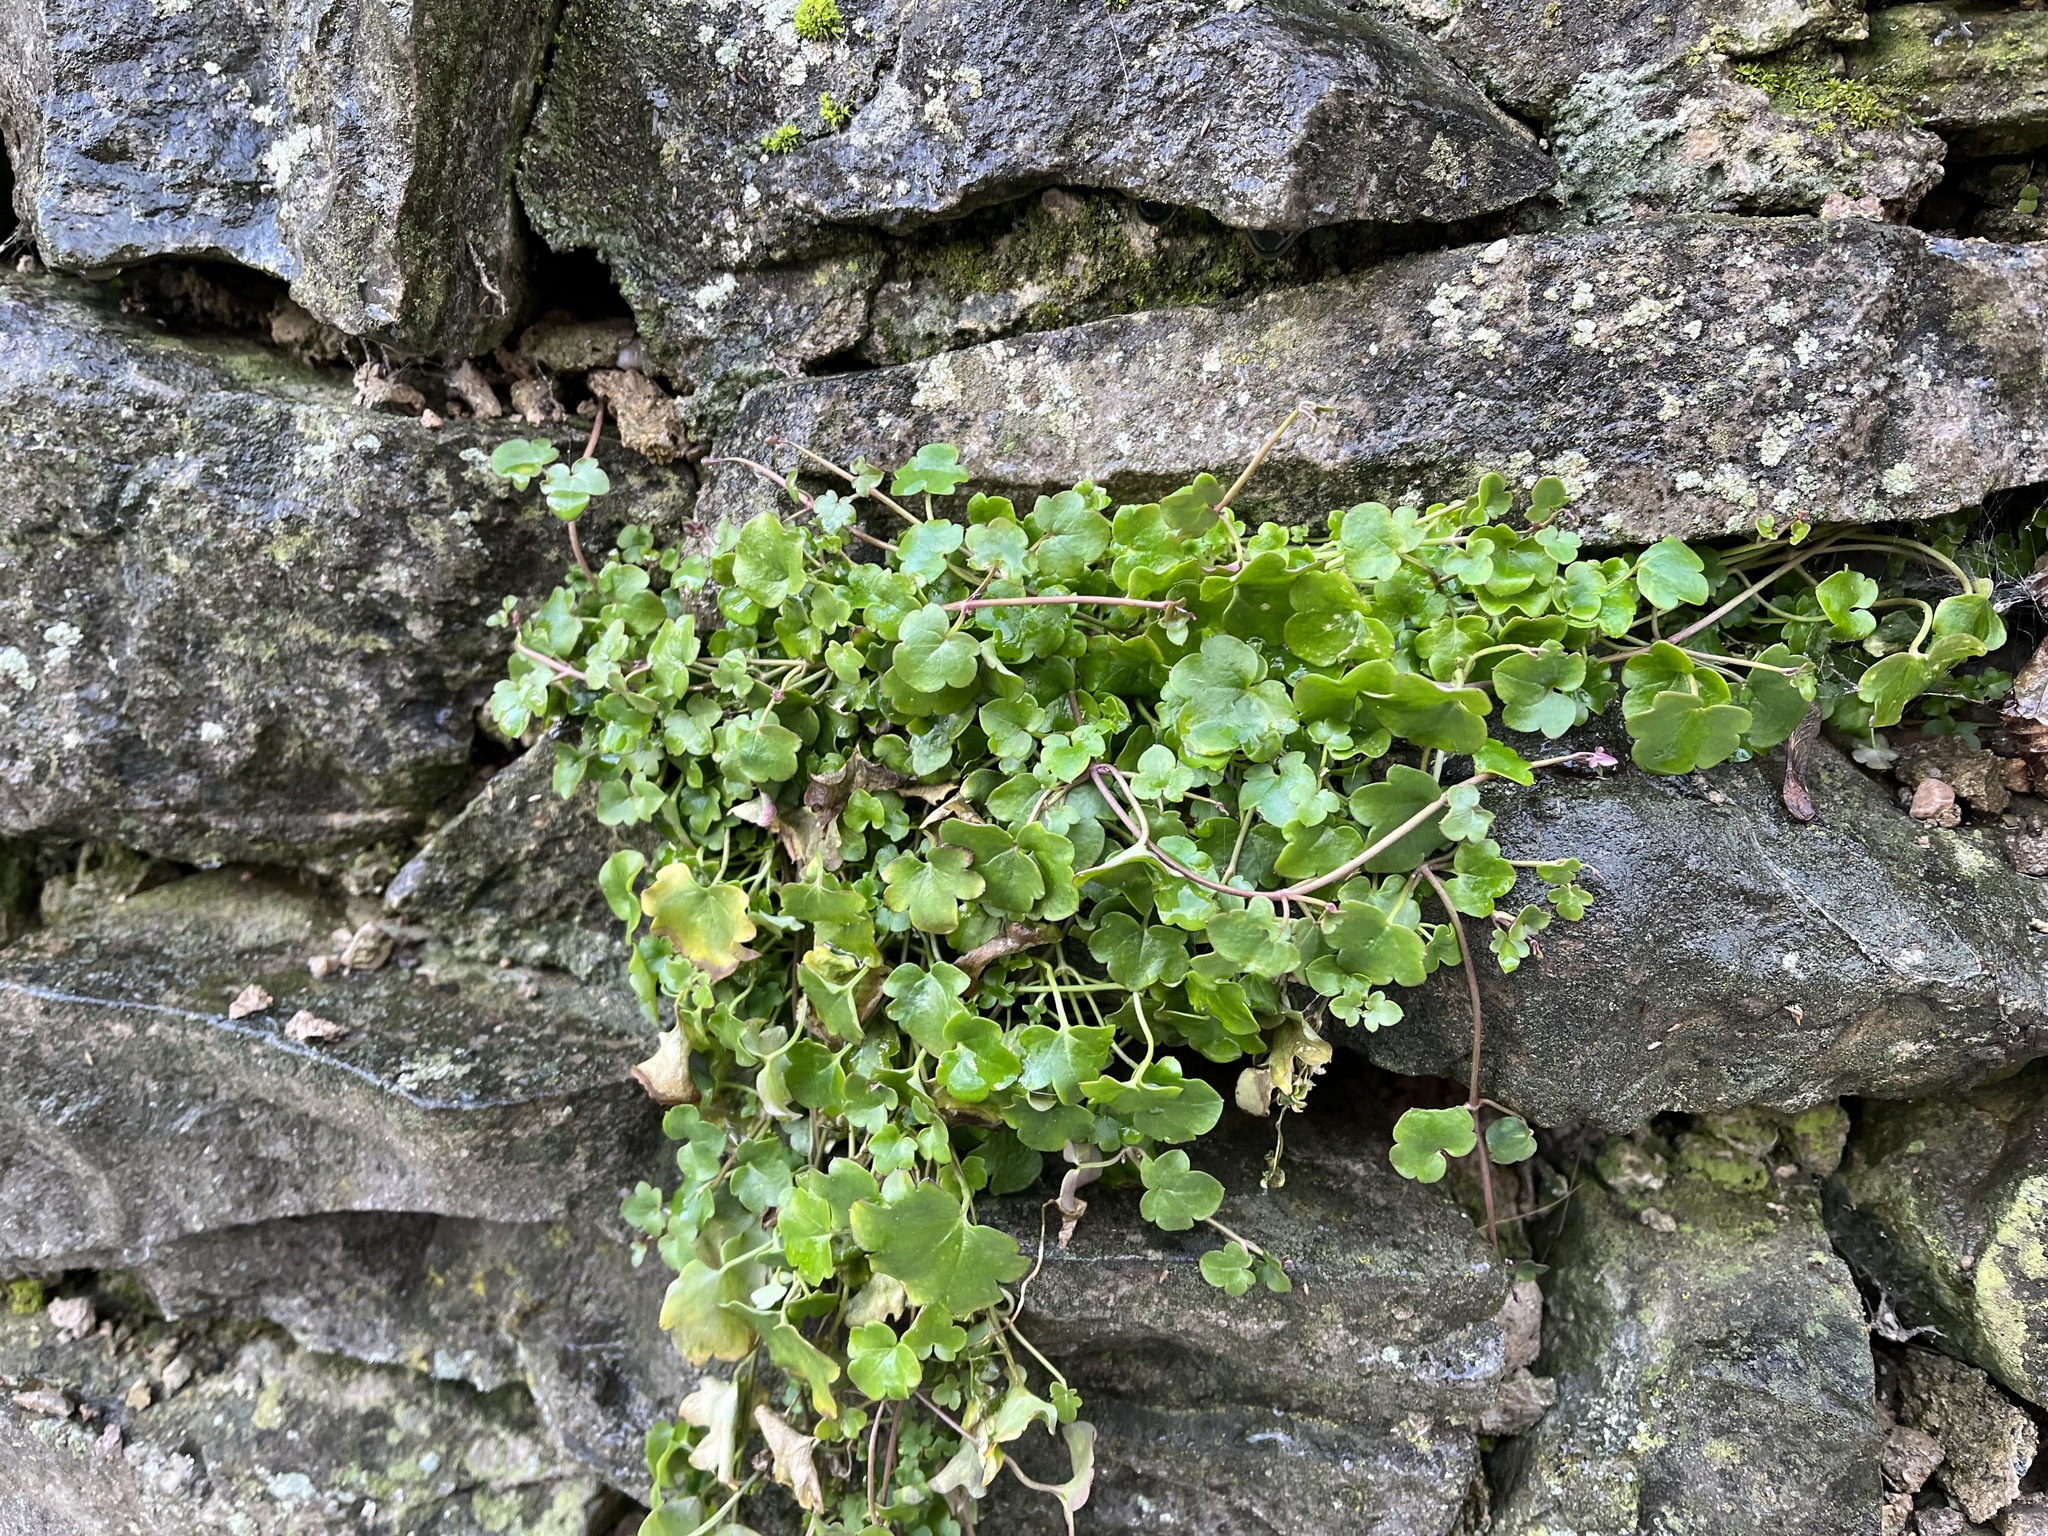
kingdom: Plantae
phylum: Tracheophyta
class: Magnoliopsida
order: Lamiales
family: Plantaginaceae
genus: Cymbalaria
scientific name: Cymbalaria muralis
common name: Ivy-leaved toadflax
